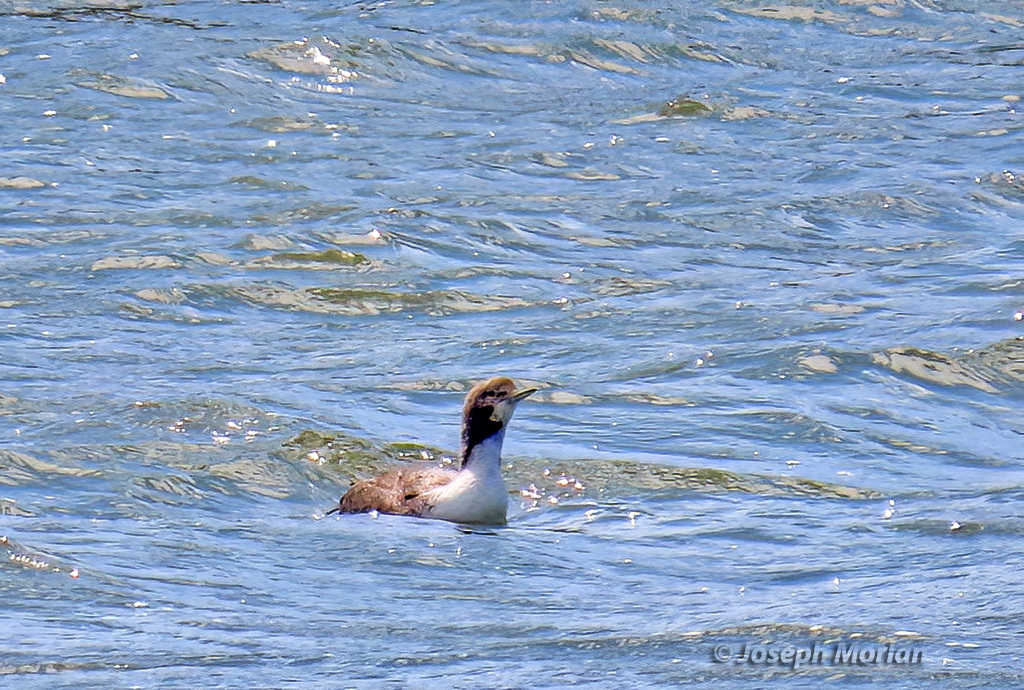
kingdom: Animalia
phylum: Chordata
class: Aves
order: Gaviiformes
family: Gaviidae
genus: Gavia
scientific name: Gavia stellata
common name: Red-throated loon
